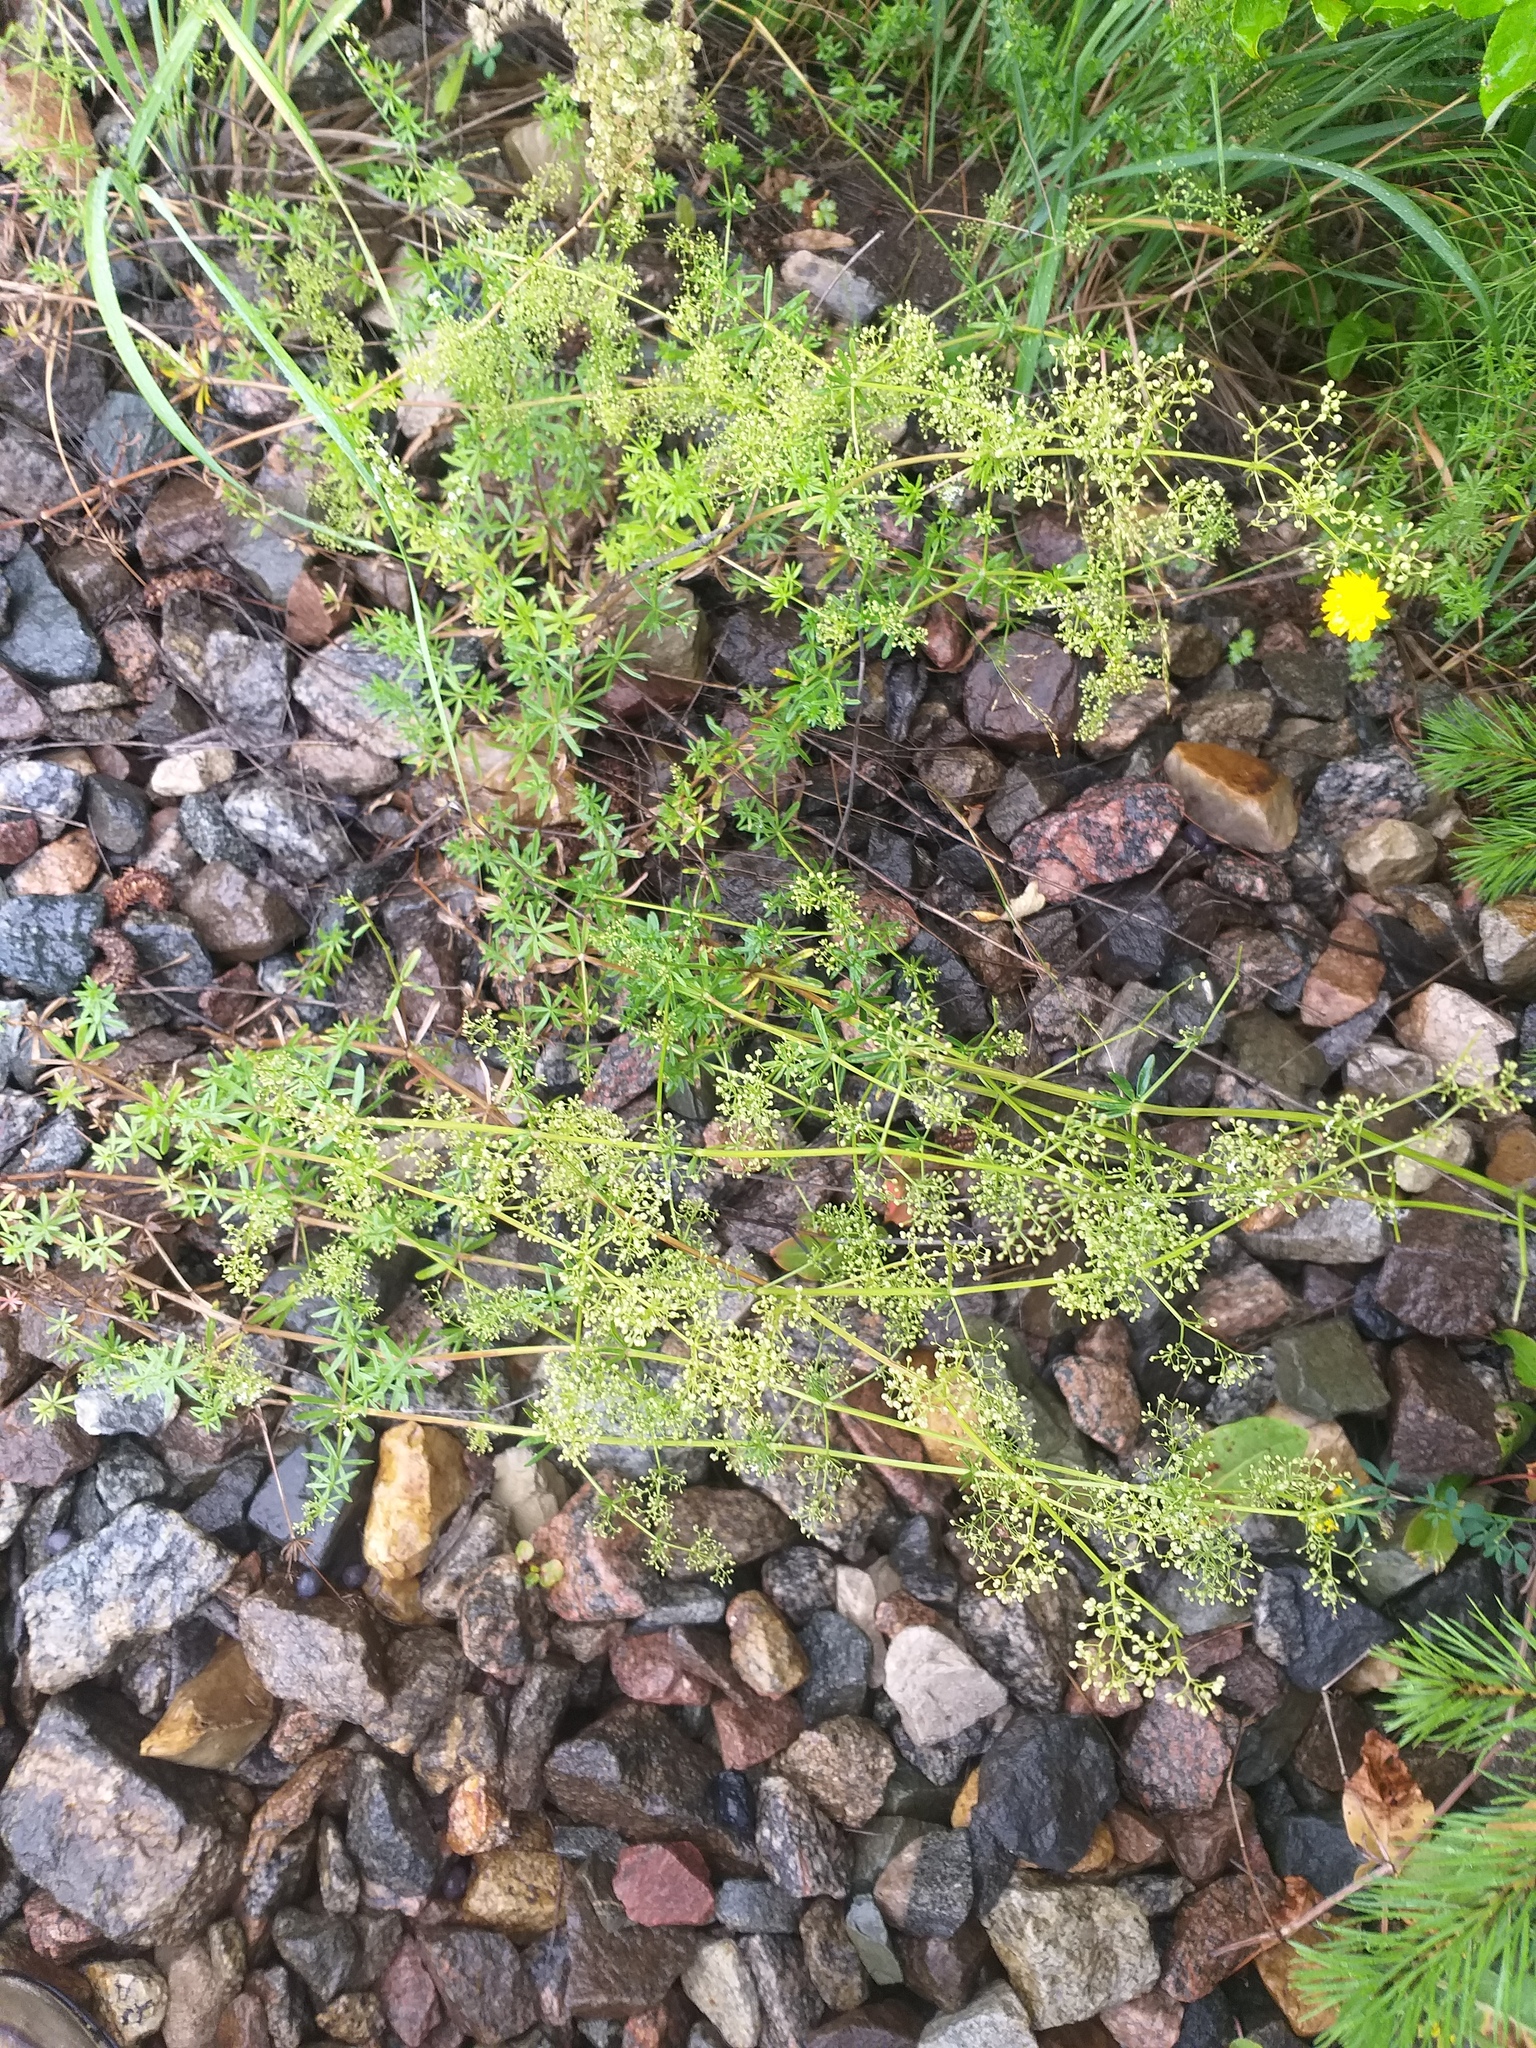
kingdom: Plantae
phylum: Tracheophyta
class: Magnoliopsida
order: Gentianales
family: Rubiaceae
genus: Galium
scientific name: Galium mollugo
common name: Hedge bedstraw
